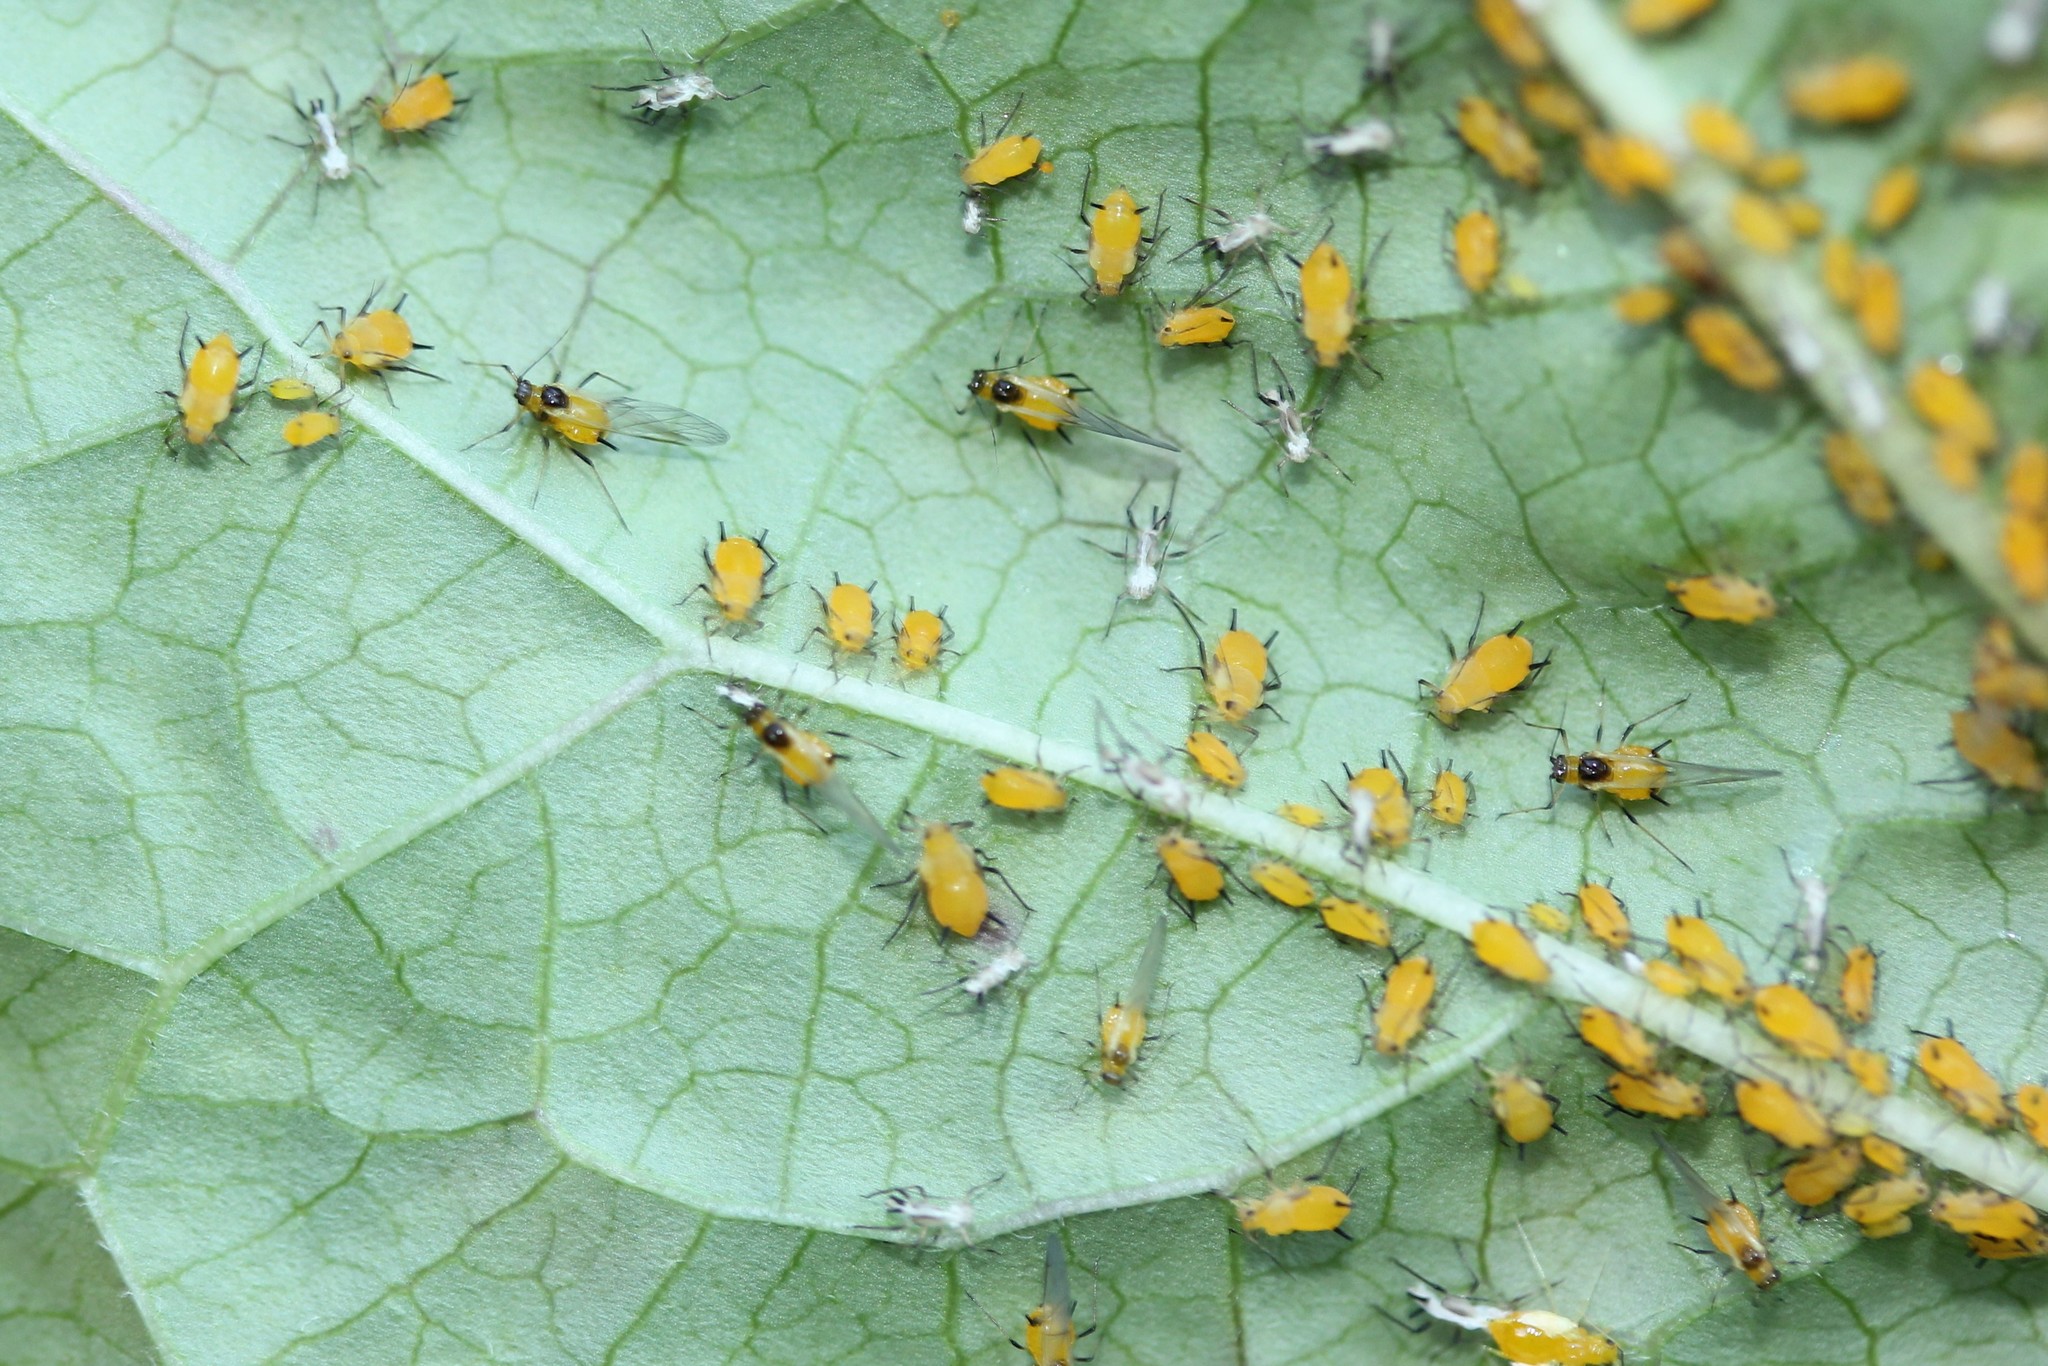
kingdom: Animalia
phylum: Arthropoda
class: Insecta
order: Hemiptera
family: Aphididae
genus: Aphis
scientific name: Aphis nerii
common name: Oleander aphid
